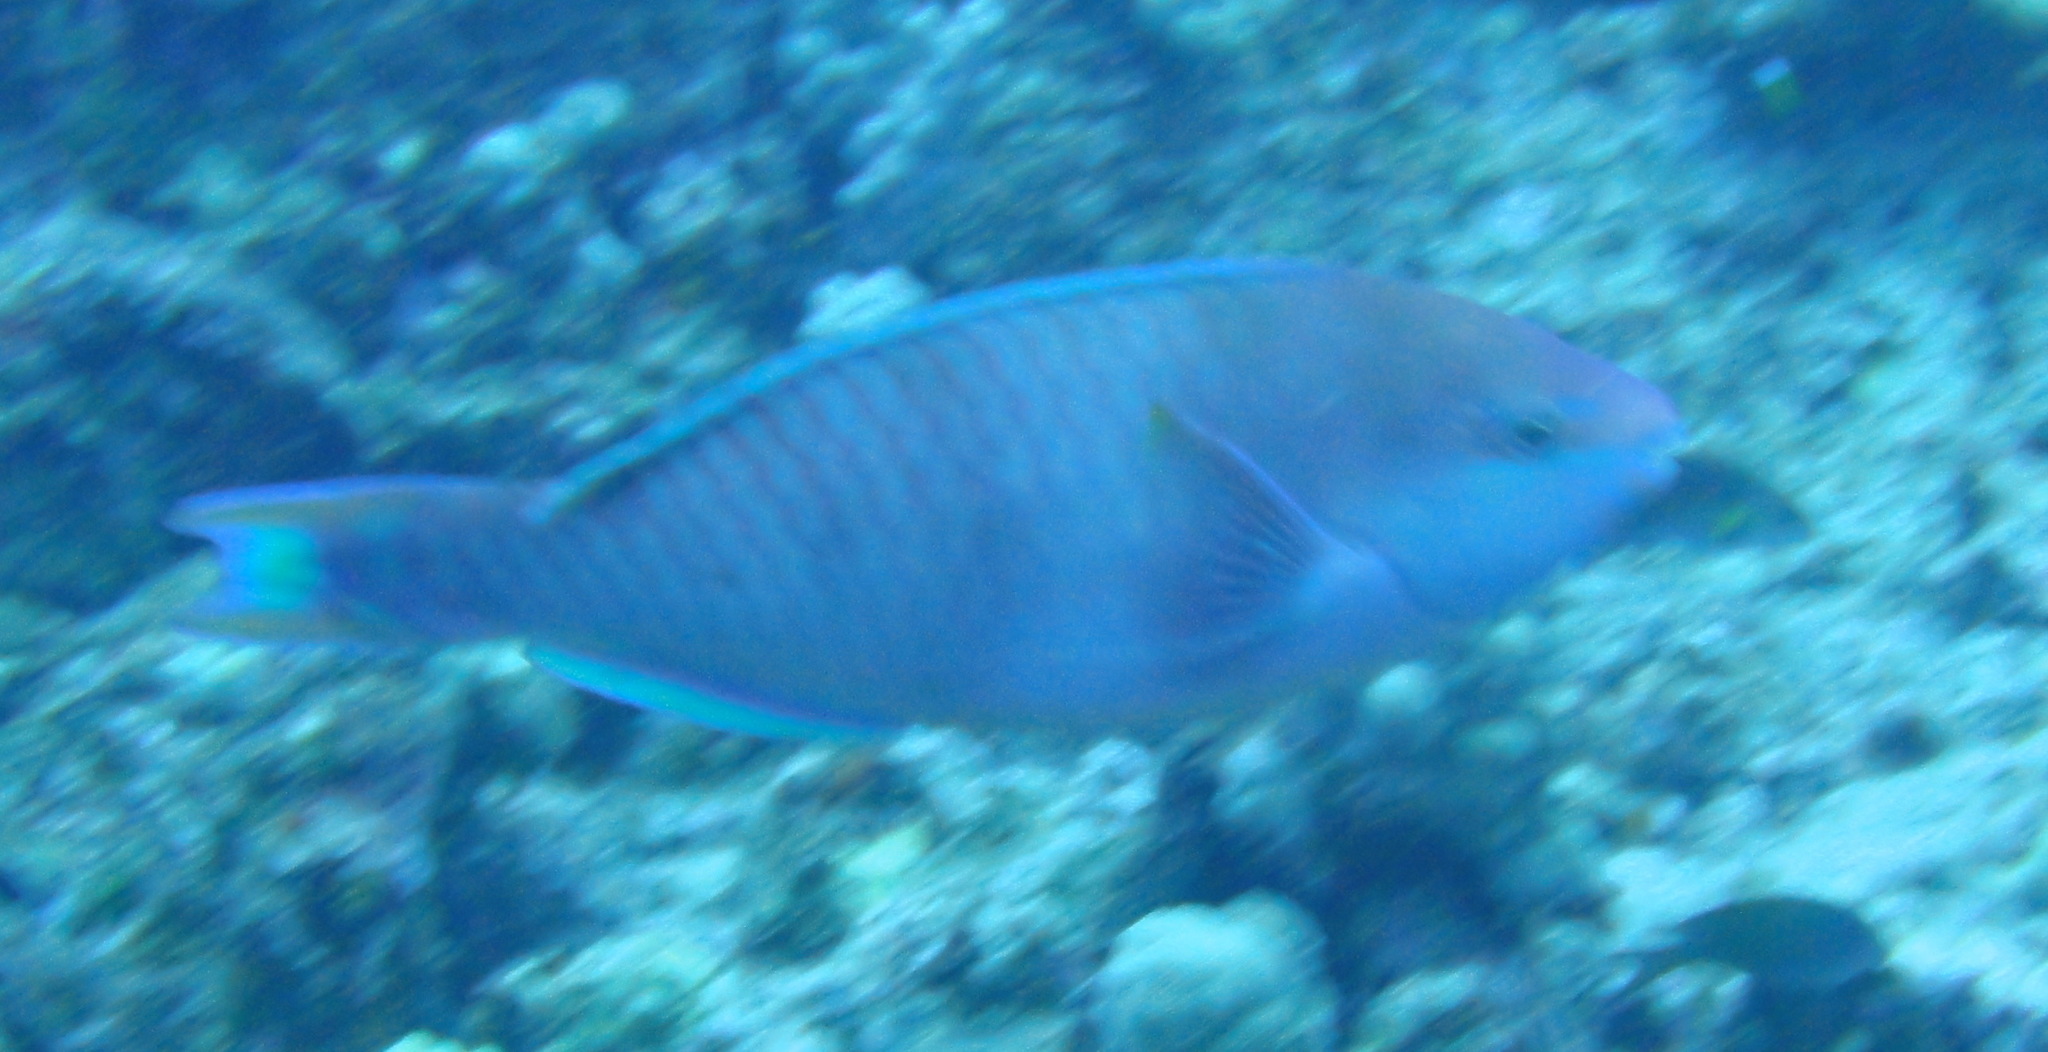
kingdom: Animalia
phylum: Chordata
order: Perciformes
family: Scaridae
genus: Scarus
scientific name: Scarus dubius
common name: Regal parrot
